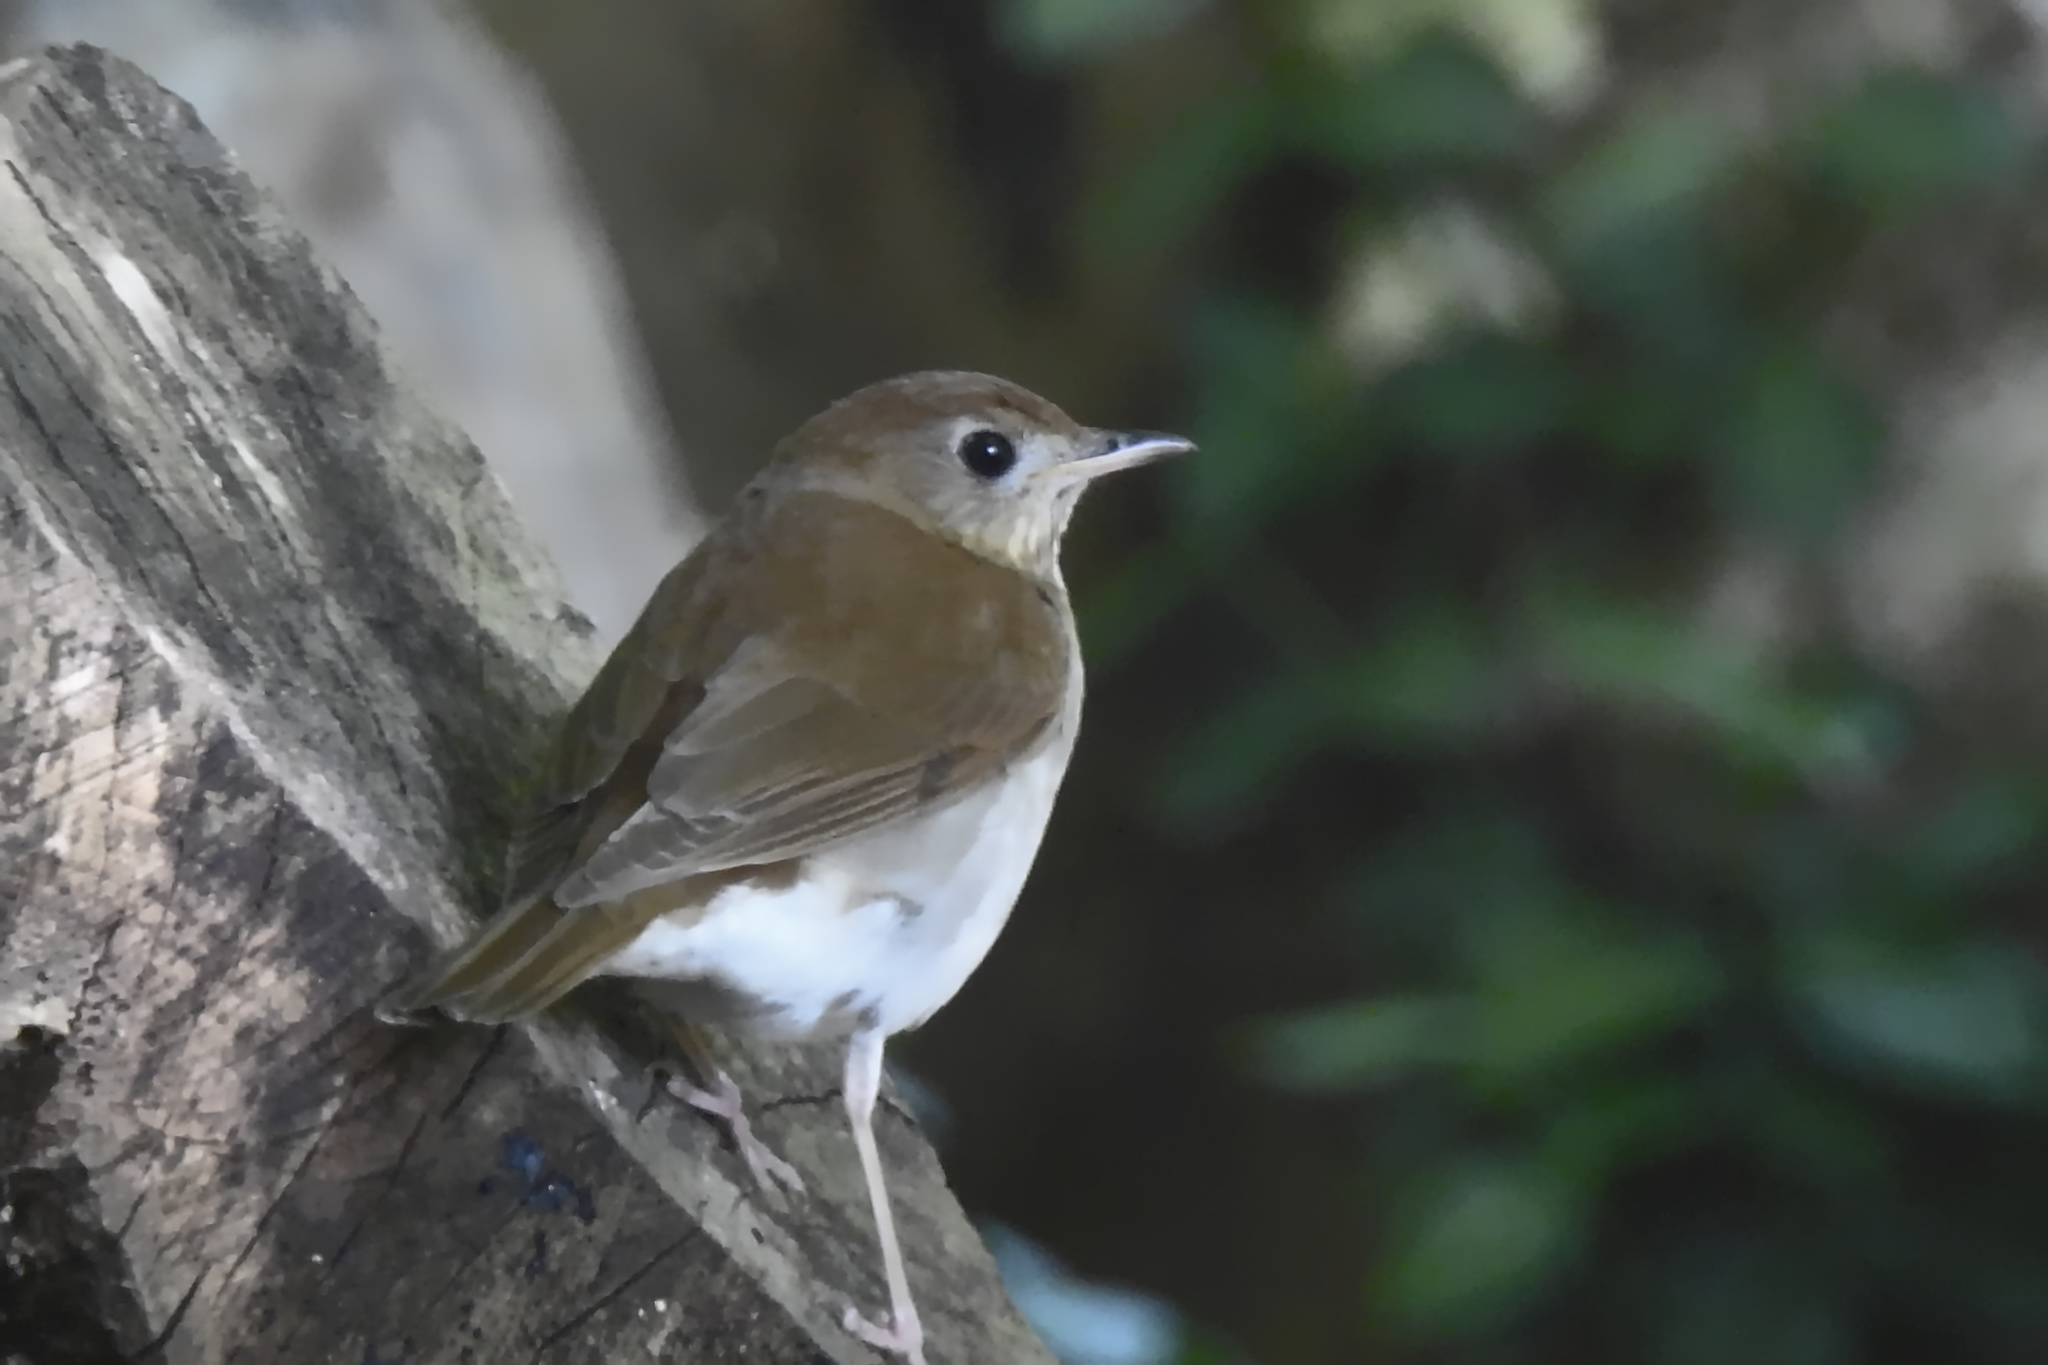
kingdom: Animalia
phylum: Chordata
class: Aves
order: Passeriformes
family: Turdidae
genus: Catharus
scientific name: Catharus fuscescens
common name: Veery
